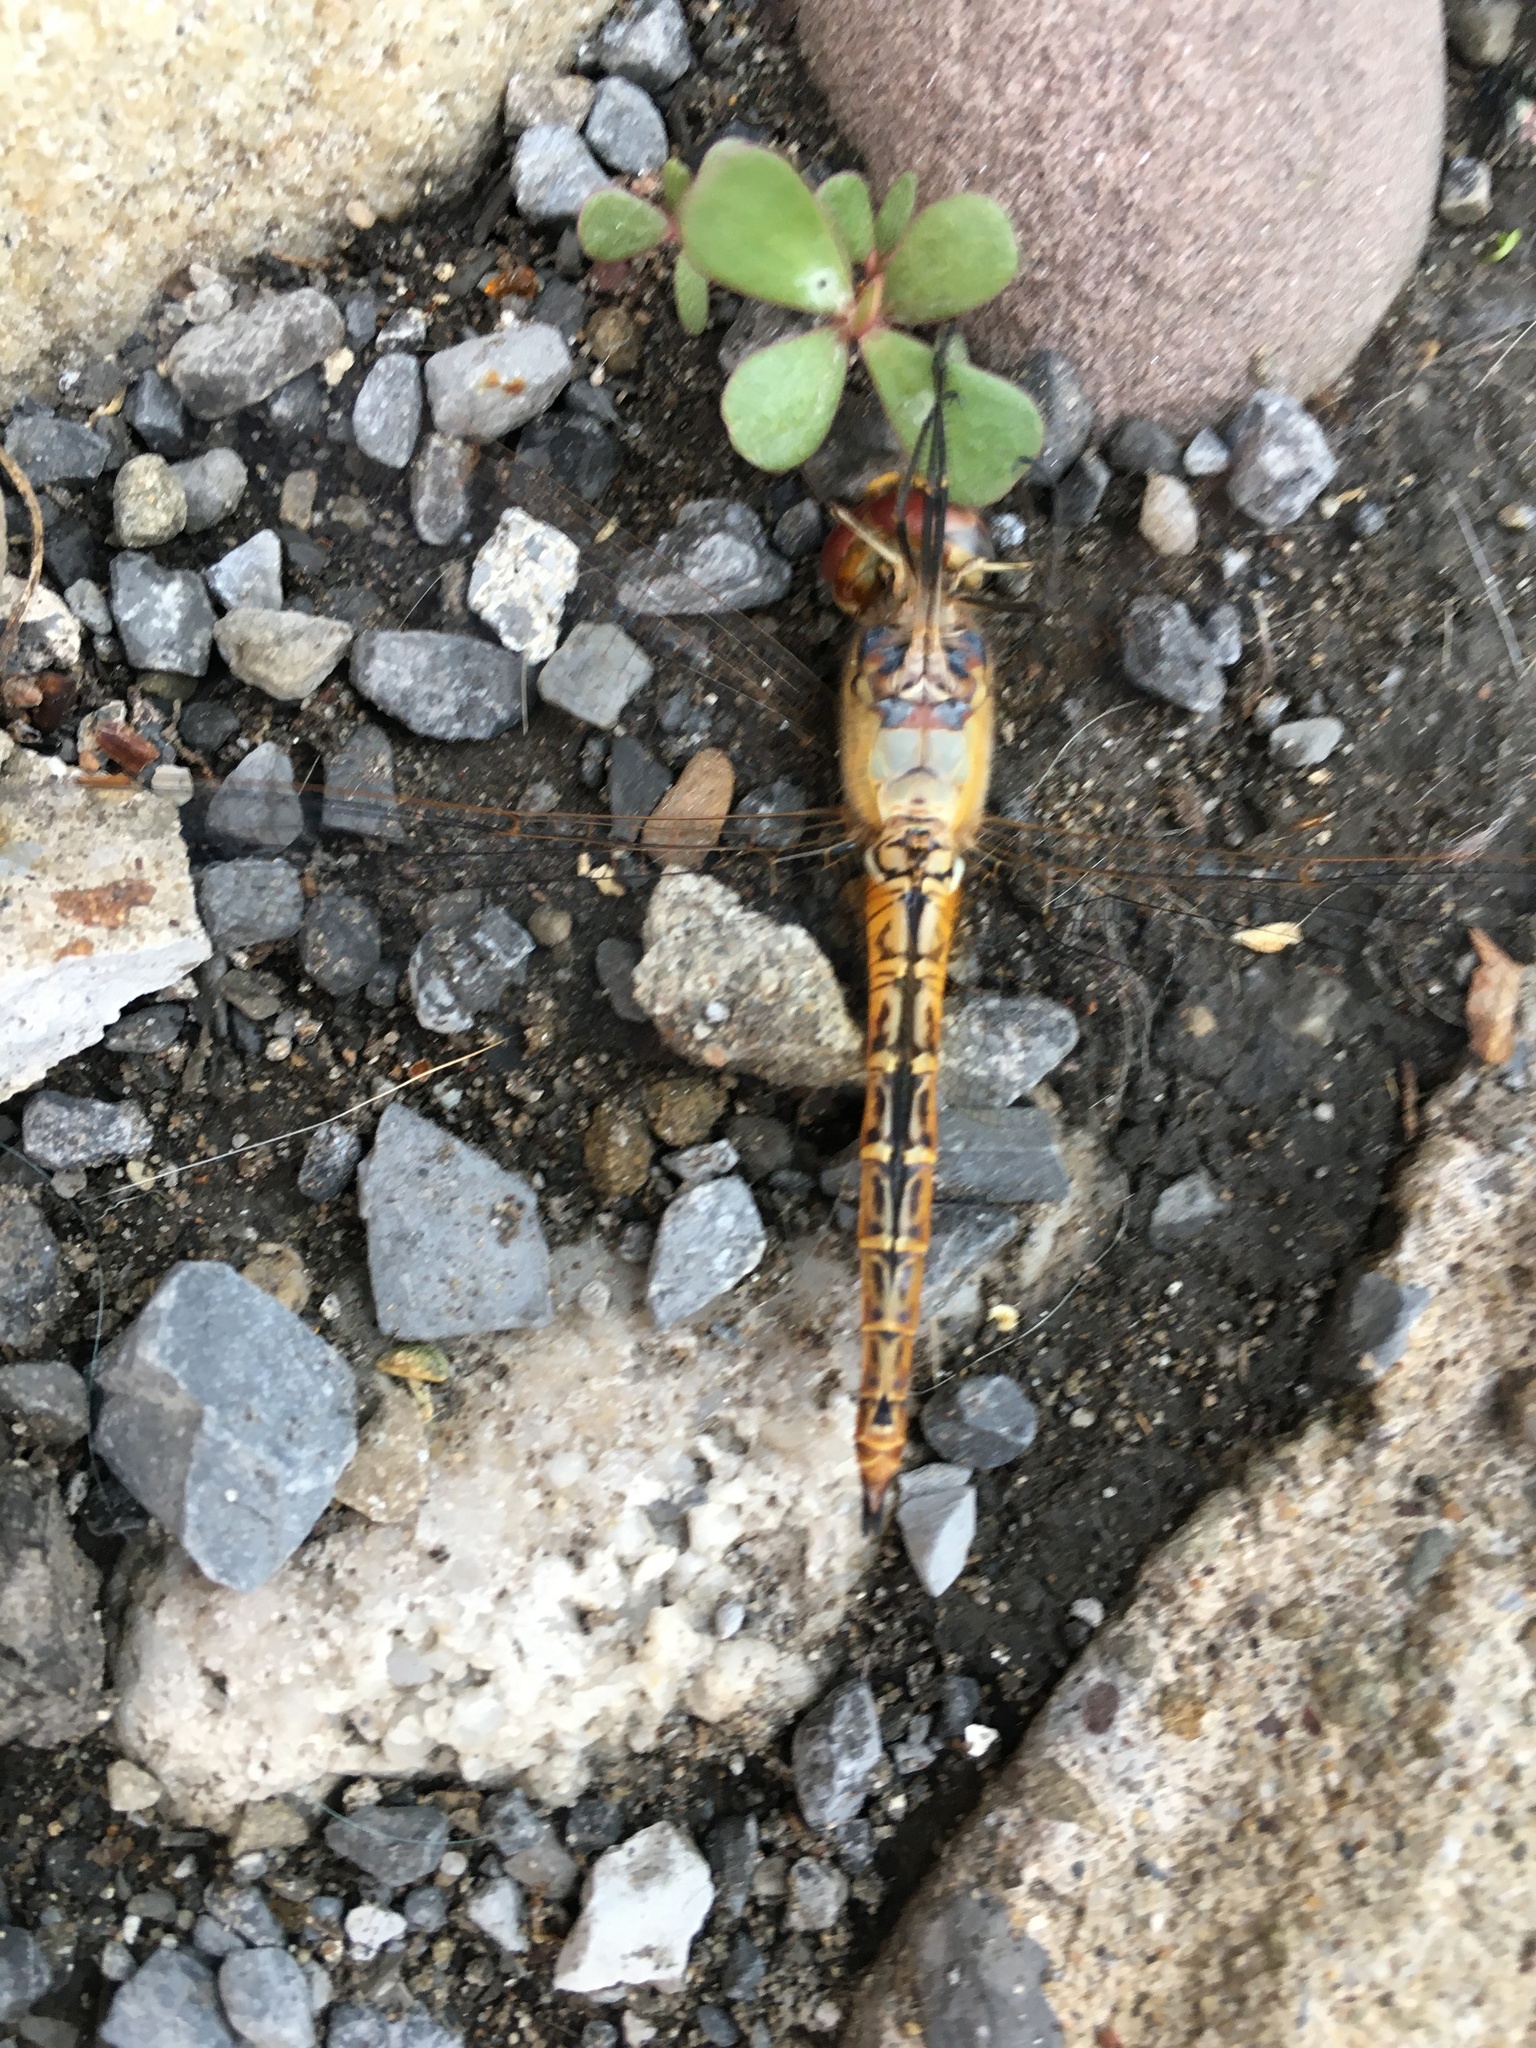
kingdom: Animalia
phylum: Arthropoda
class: Insecta
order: Odonata
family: Libellulidae
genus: Pantala
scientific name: Pantala flavescens
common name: Wandering glider
